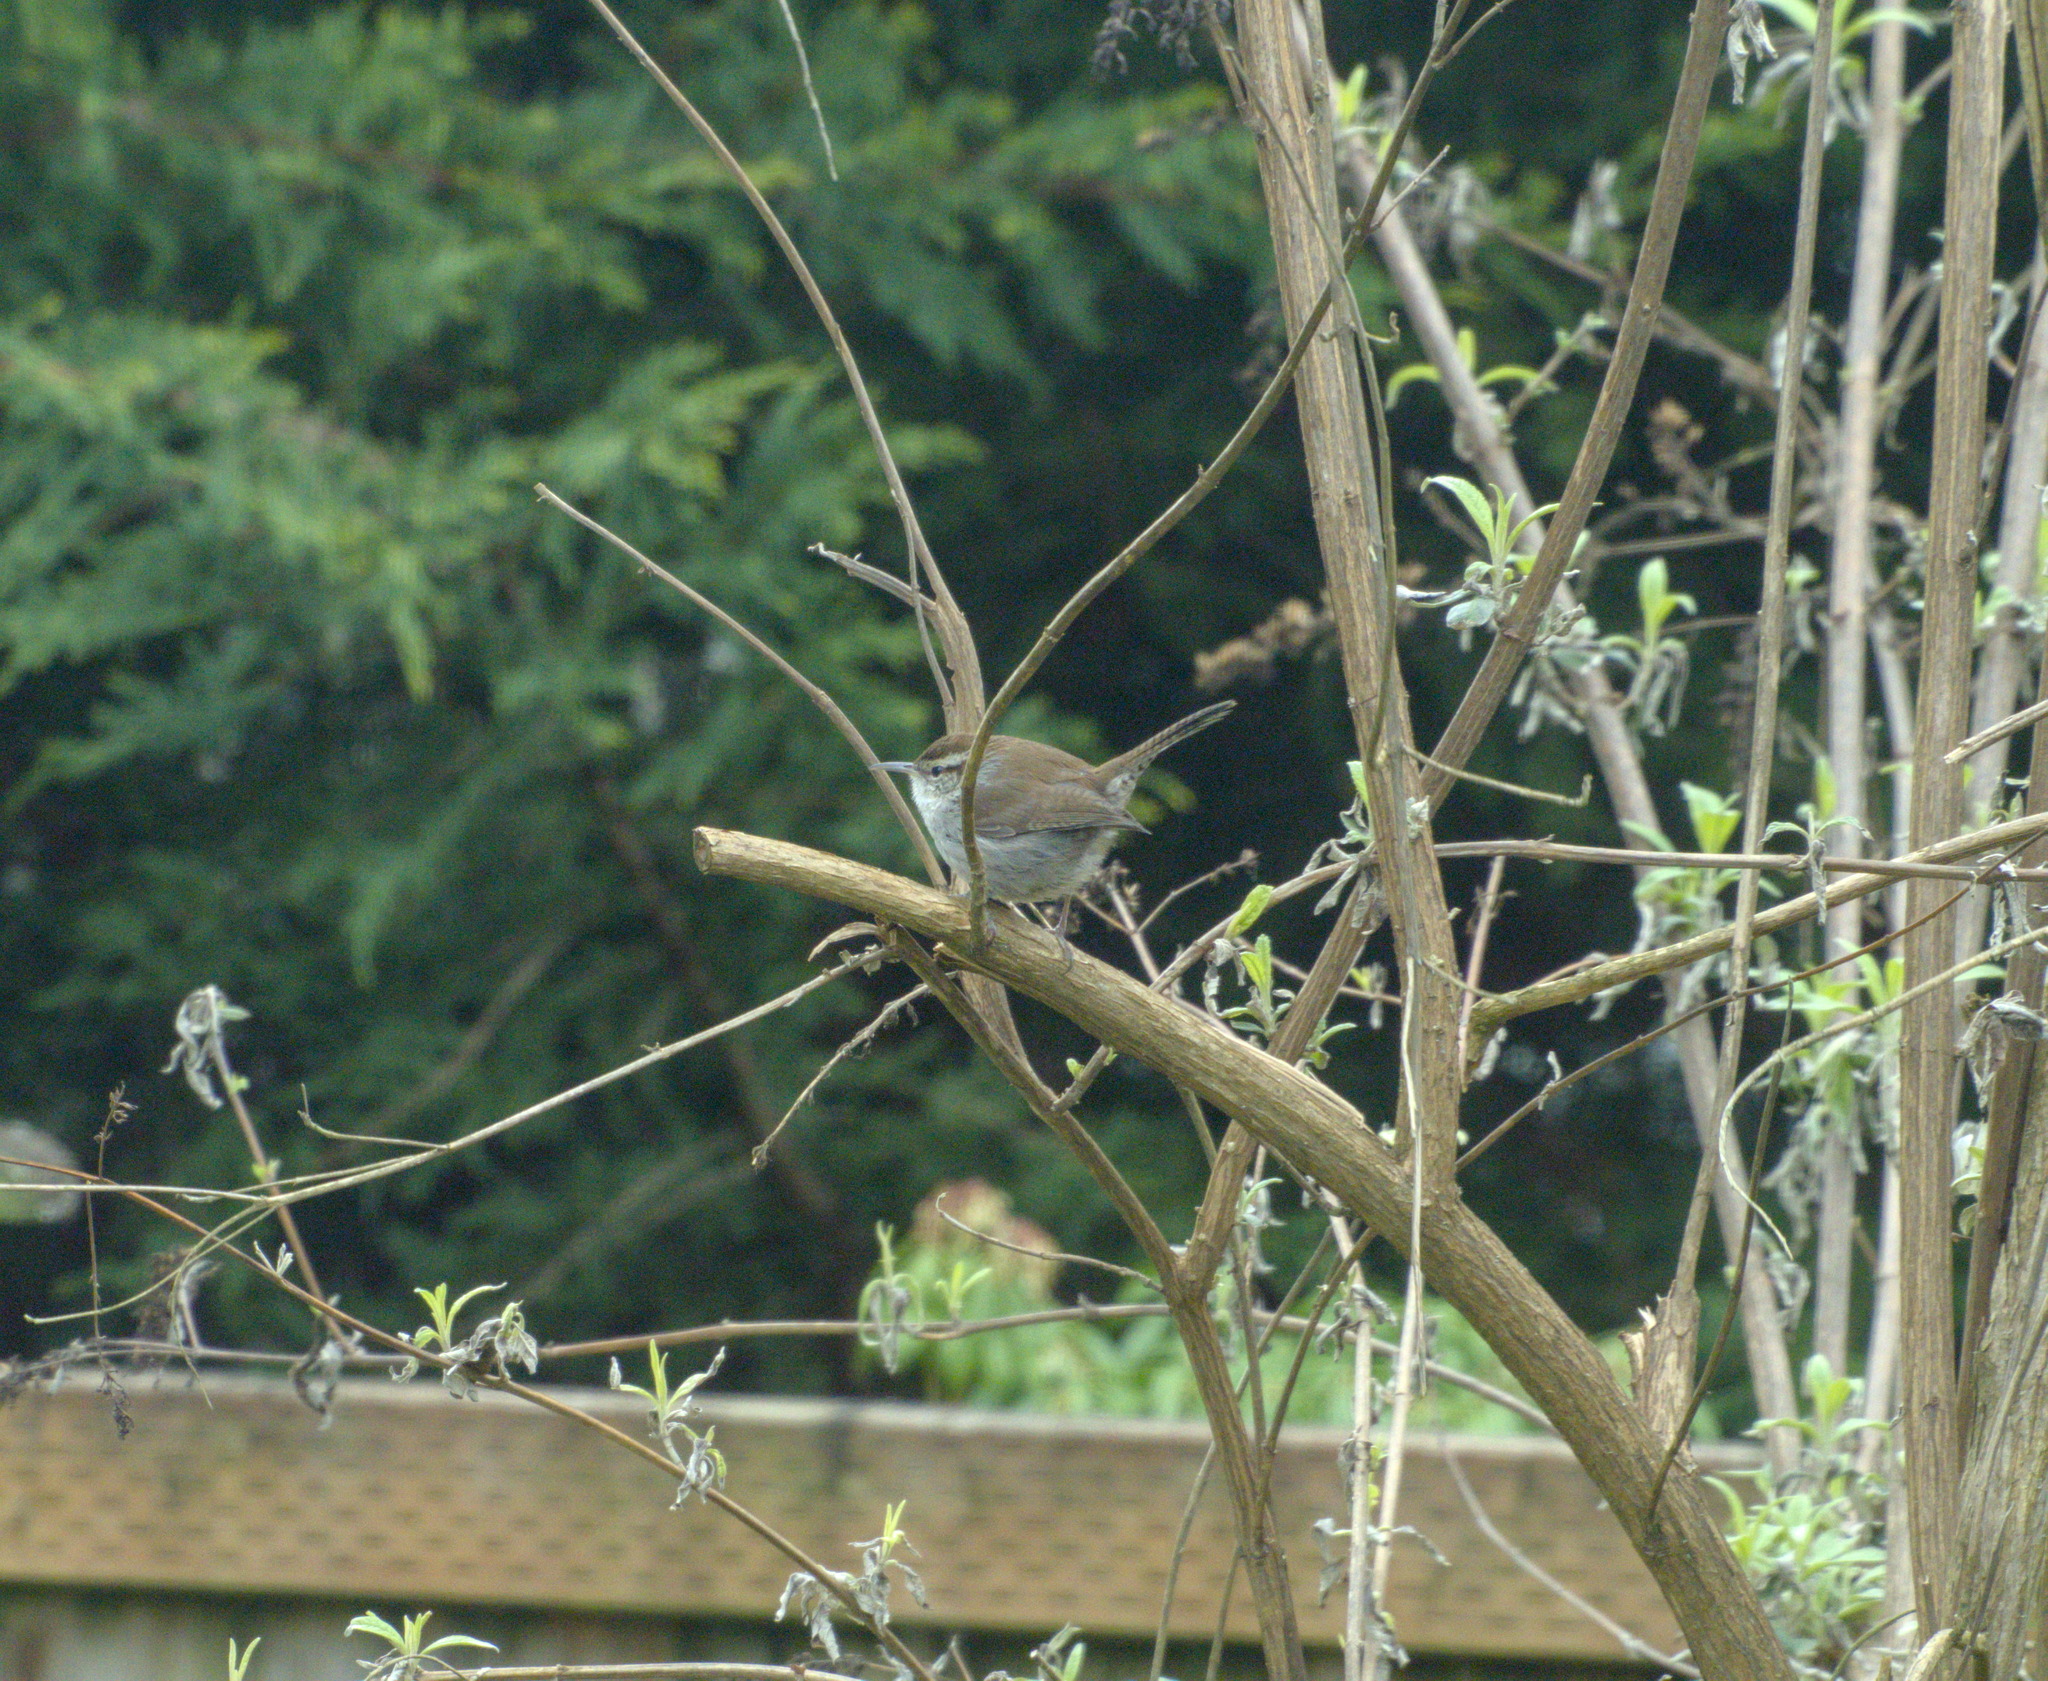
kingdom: Animalia
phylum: Chordata
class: Aves
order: Passeriformes
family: Troglodytidae
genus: Thryomanes
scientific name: Thryomanes bewickii
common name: Bewick's wren
